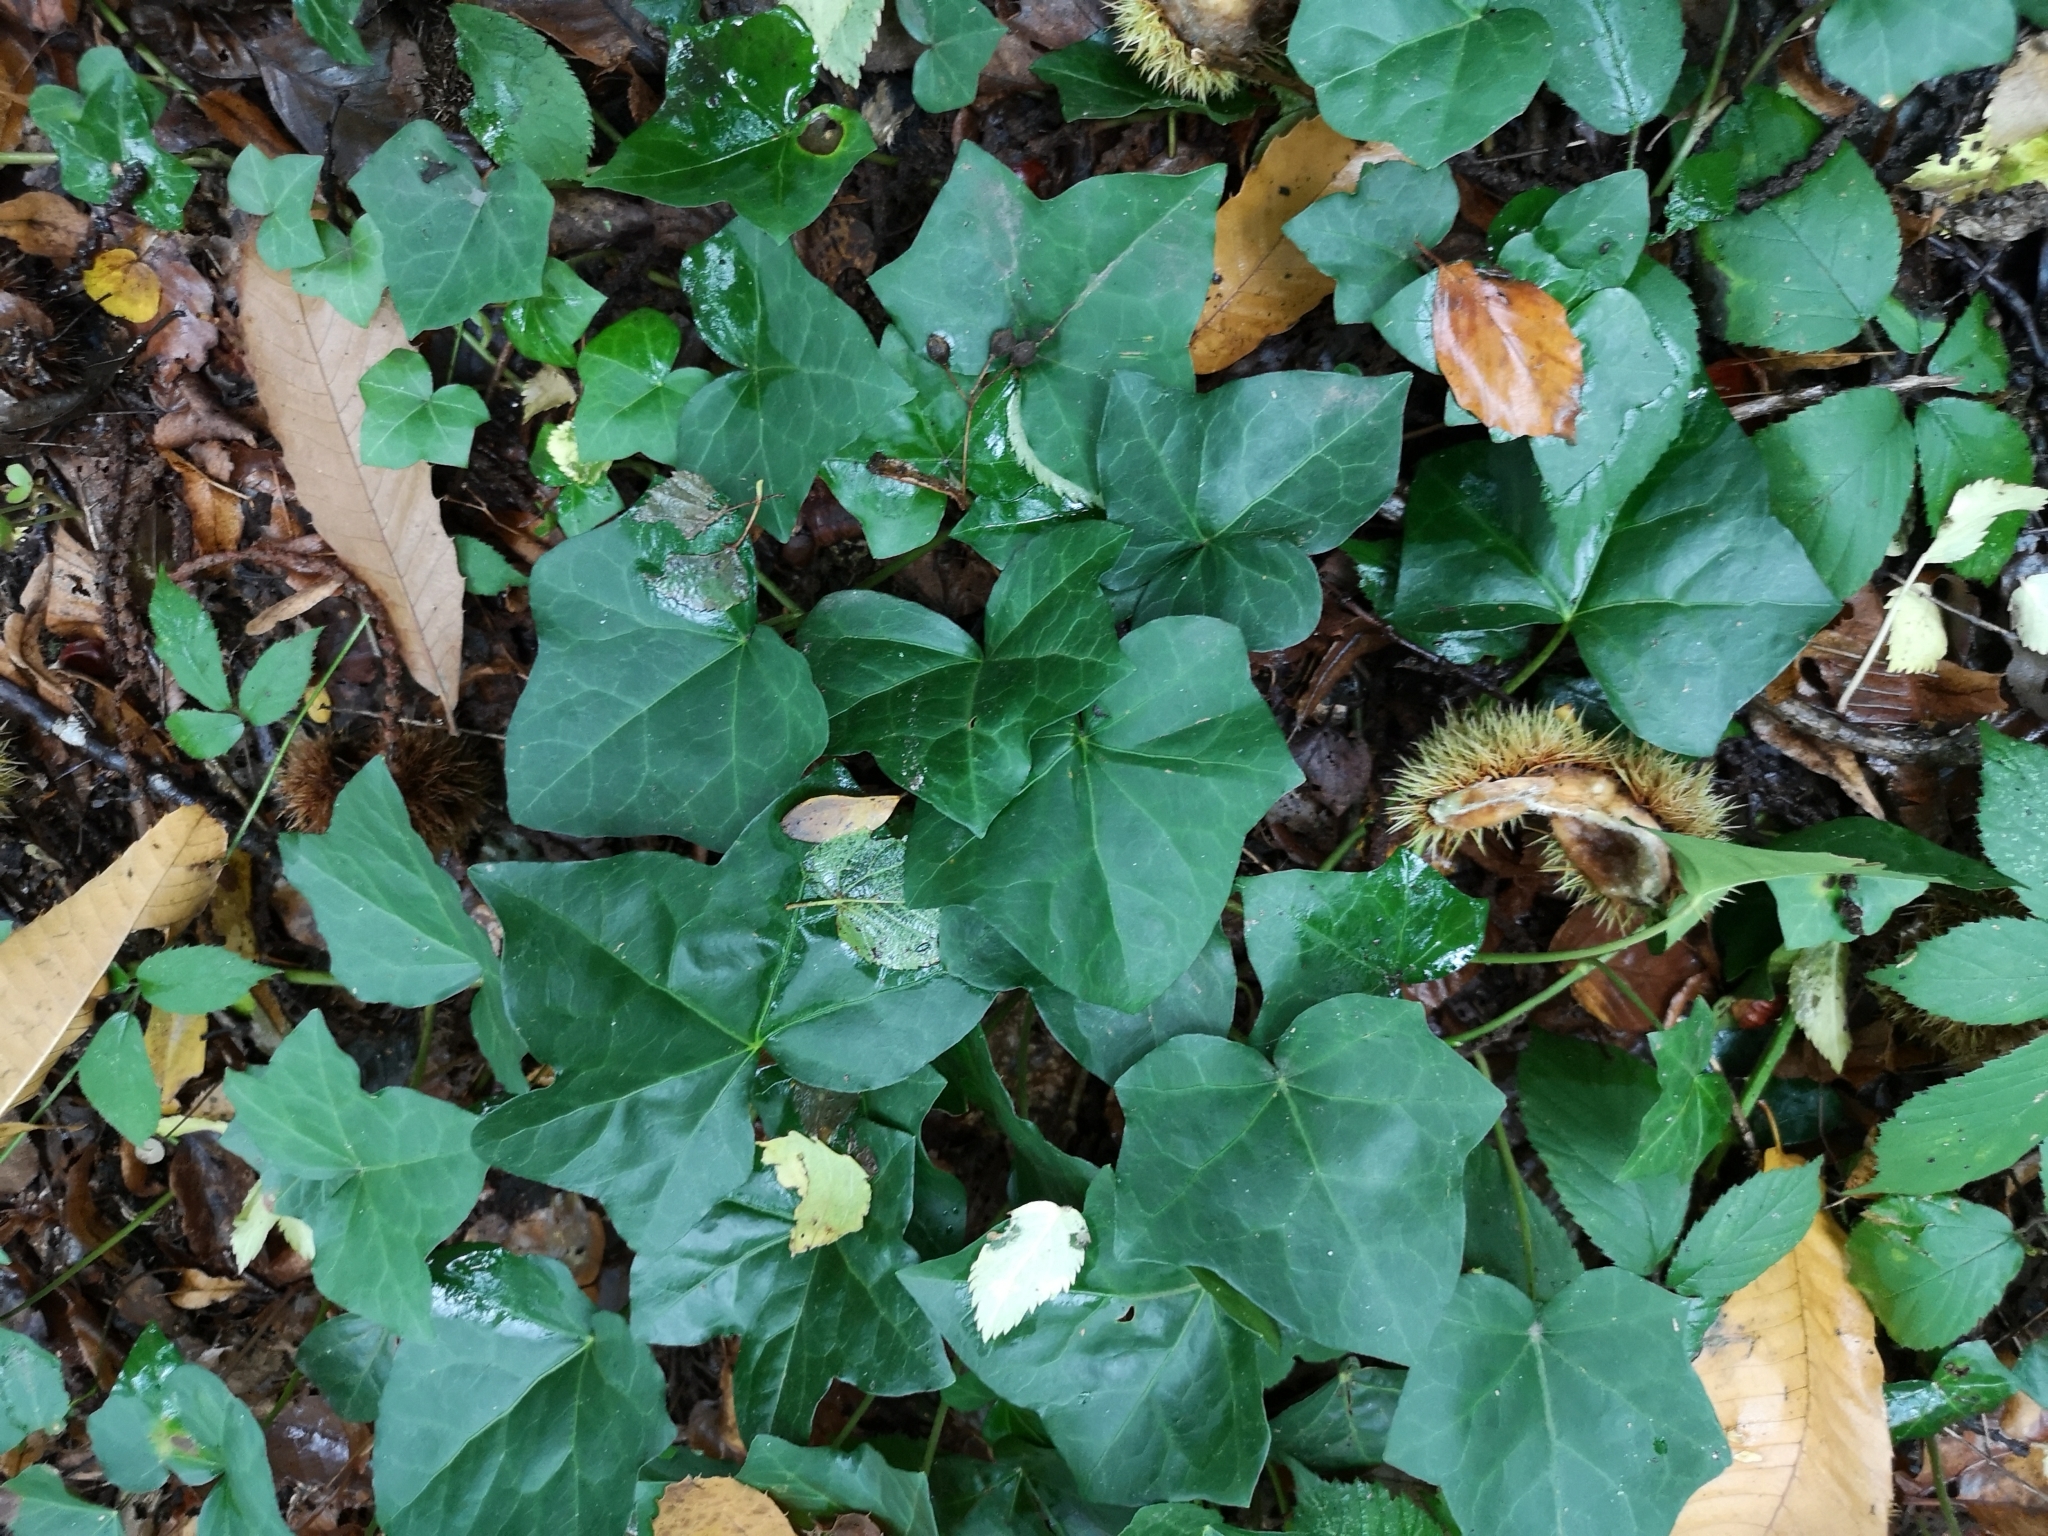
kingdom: Plantae
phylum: Tracheophyta
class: Magnoliopsida
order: Apiales
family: Araliaceae
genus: Hedera
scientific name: Hedera helix
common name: Ivy
